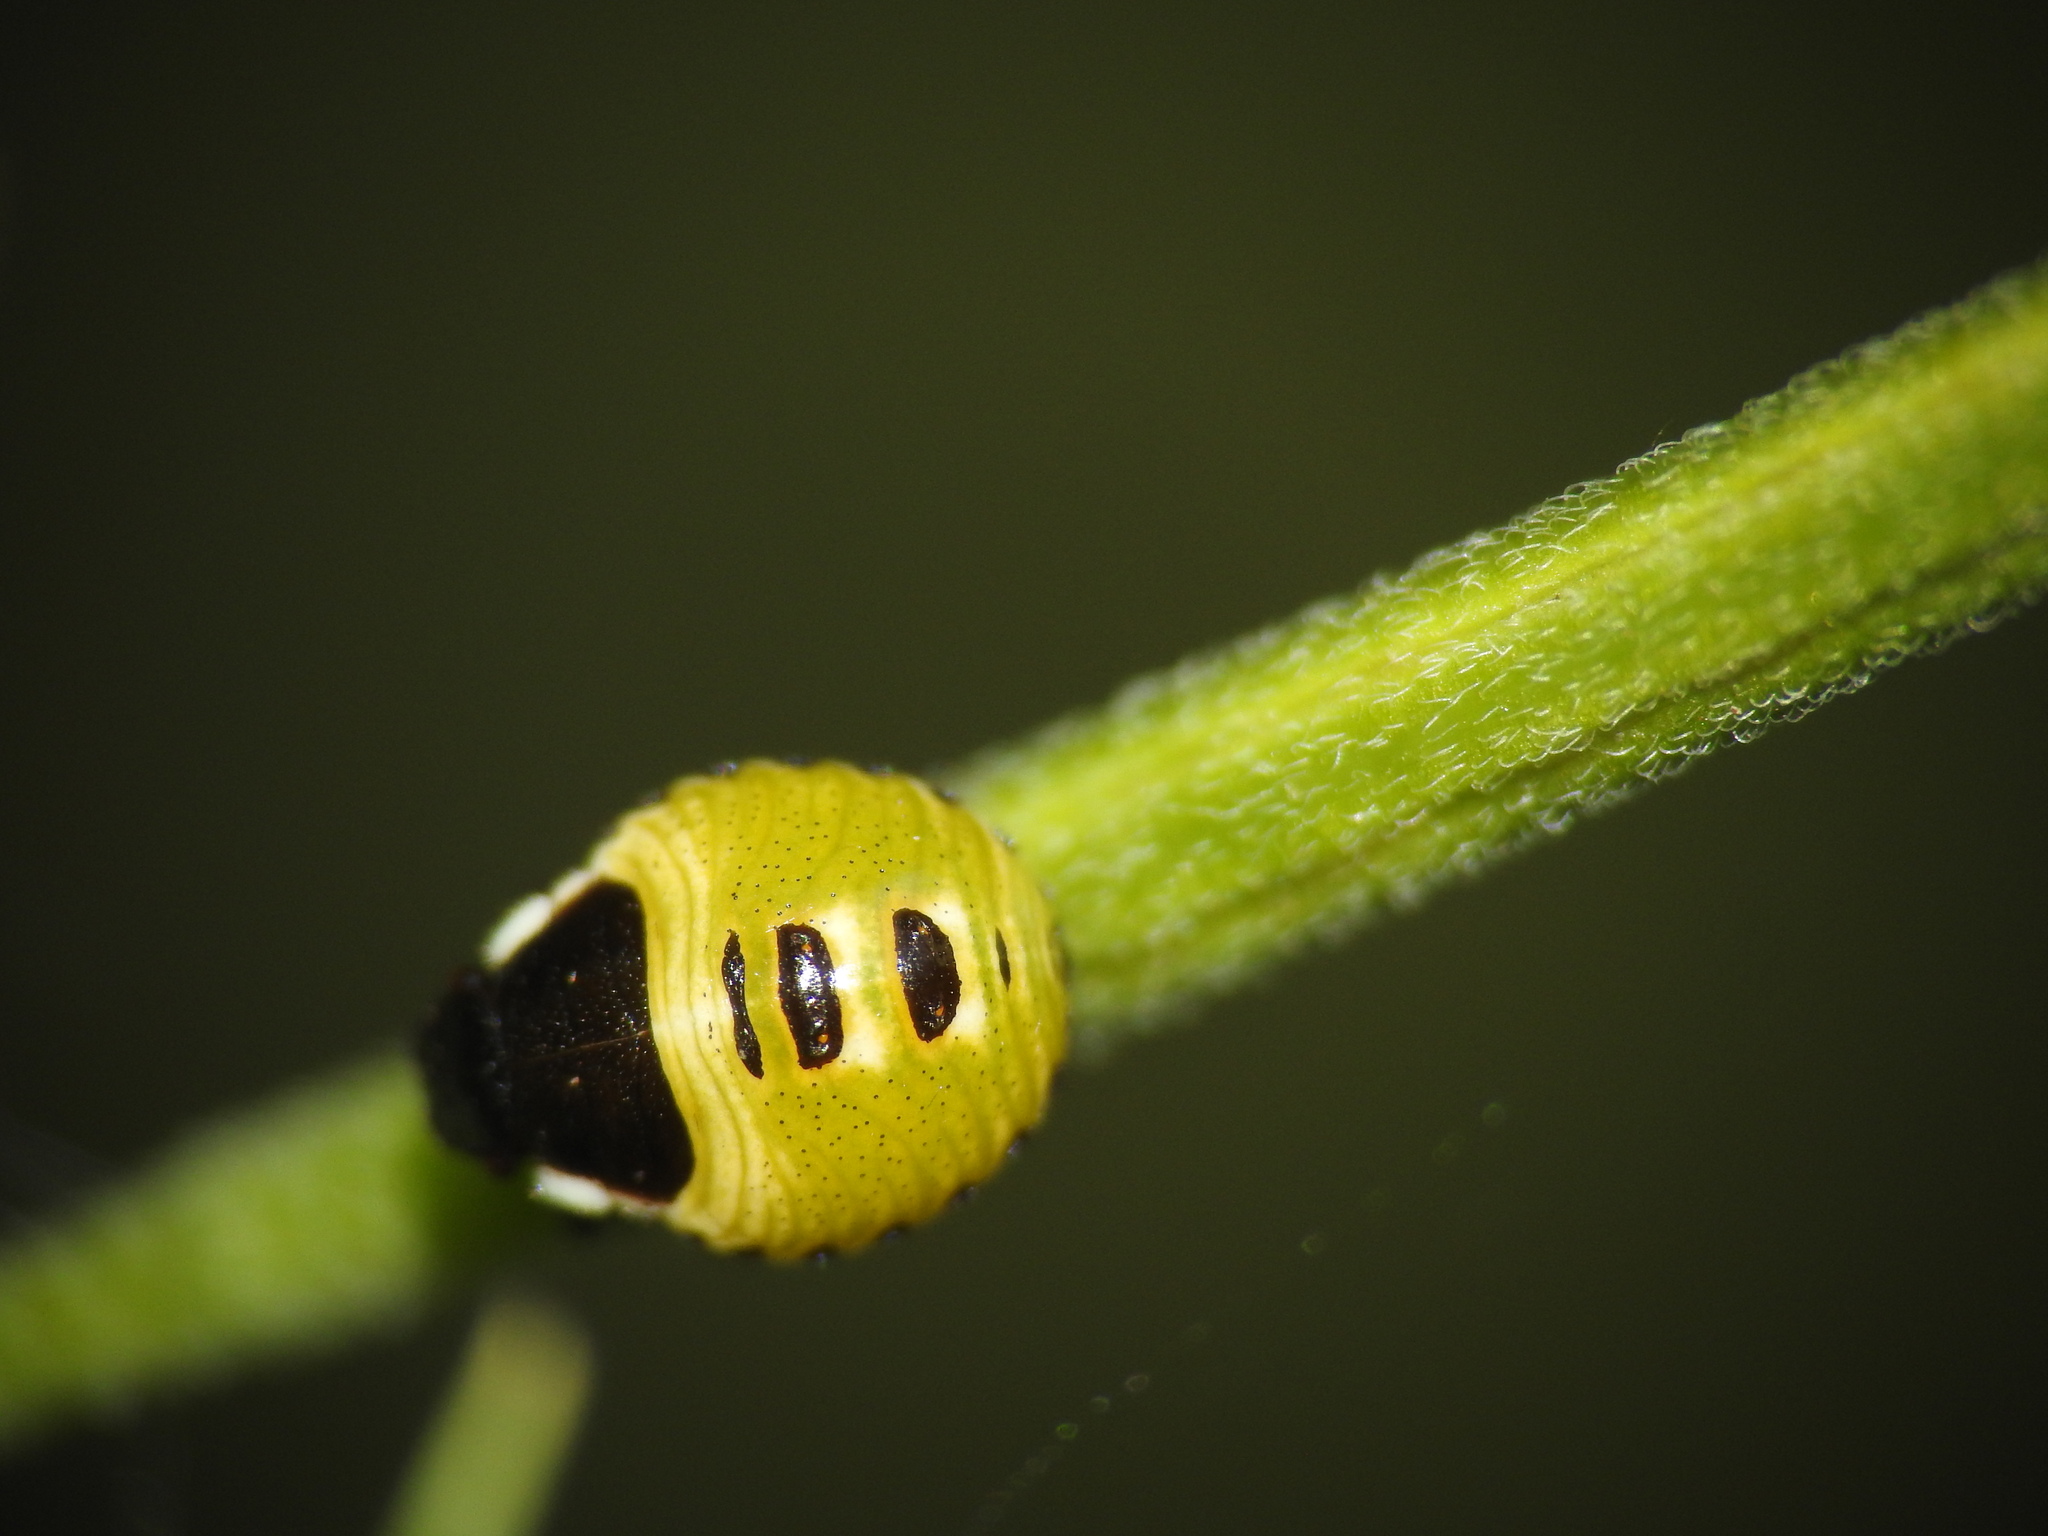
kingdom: Animalia
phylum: Arthropoda
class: Insecta
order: Hemiptera
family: Pentatomidae
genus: Palomena
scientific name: Palomena prasina
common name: Green shieldbug
